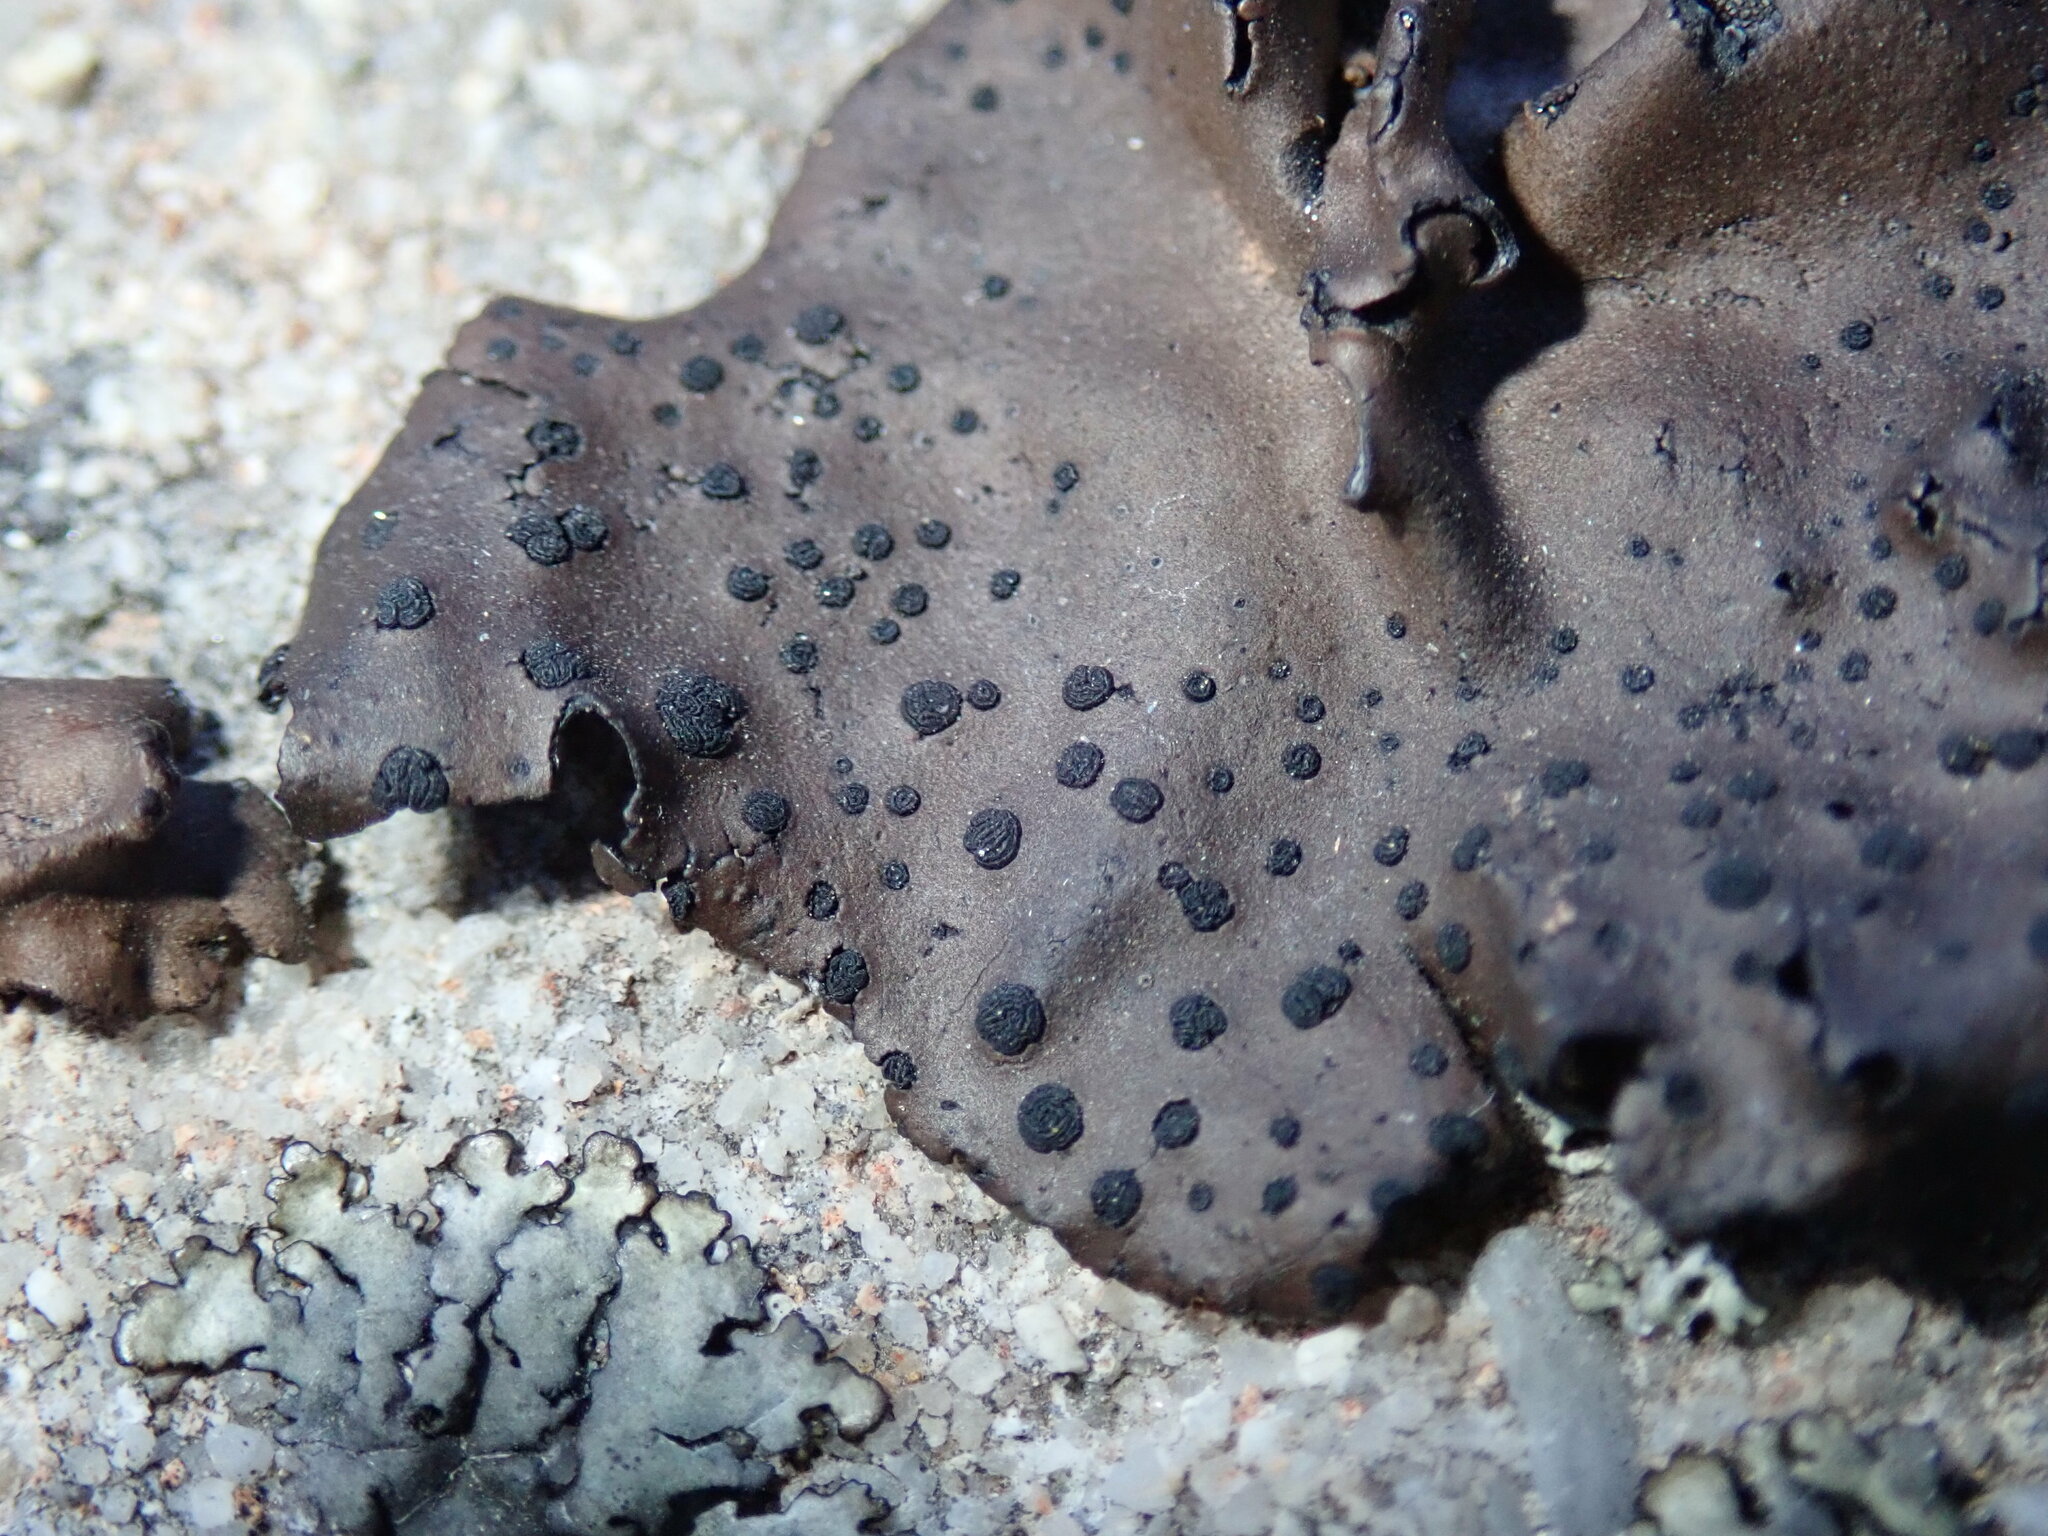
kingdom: Fungi
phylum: Ascomycota
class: Lecanoromycetes
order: Umbilicariales
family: Umbilicariaceae
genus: Umbilicaria
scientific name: Umbilicaria phaea
